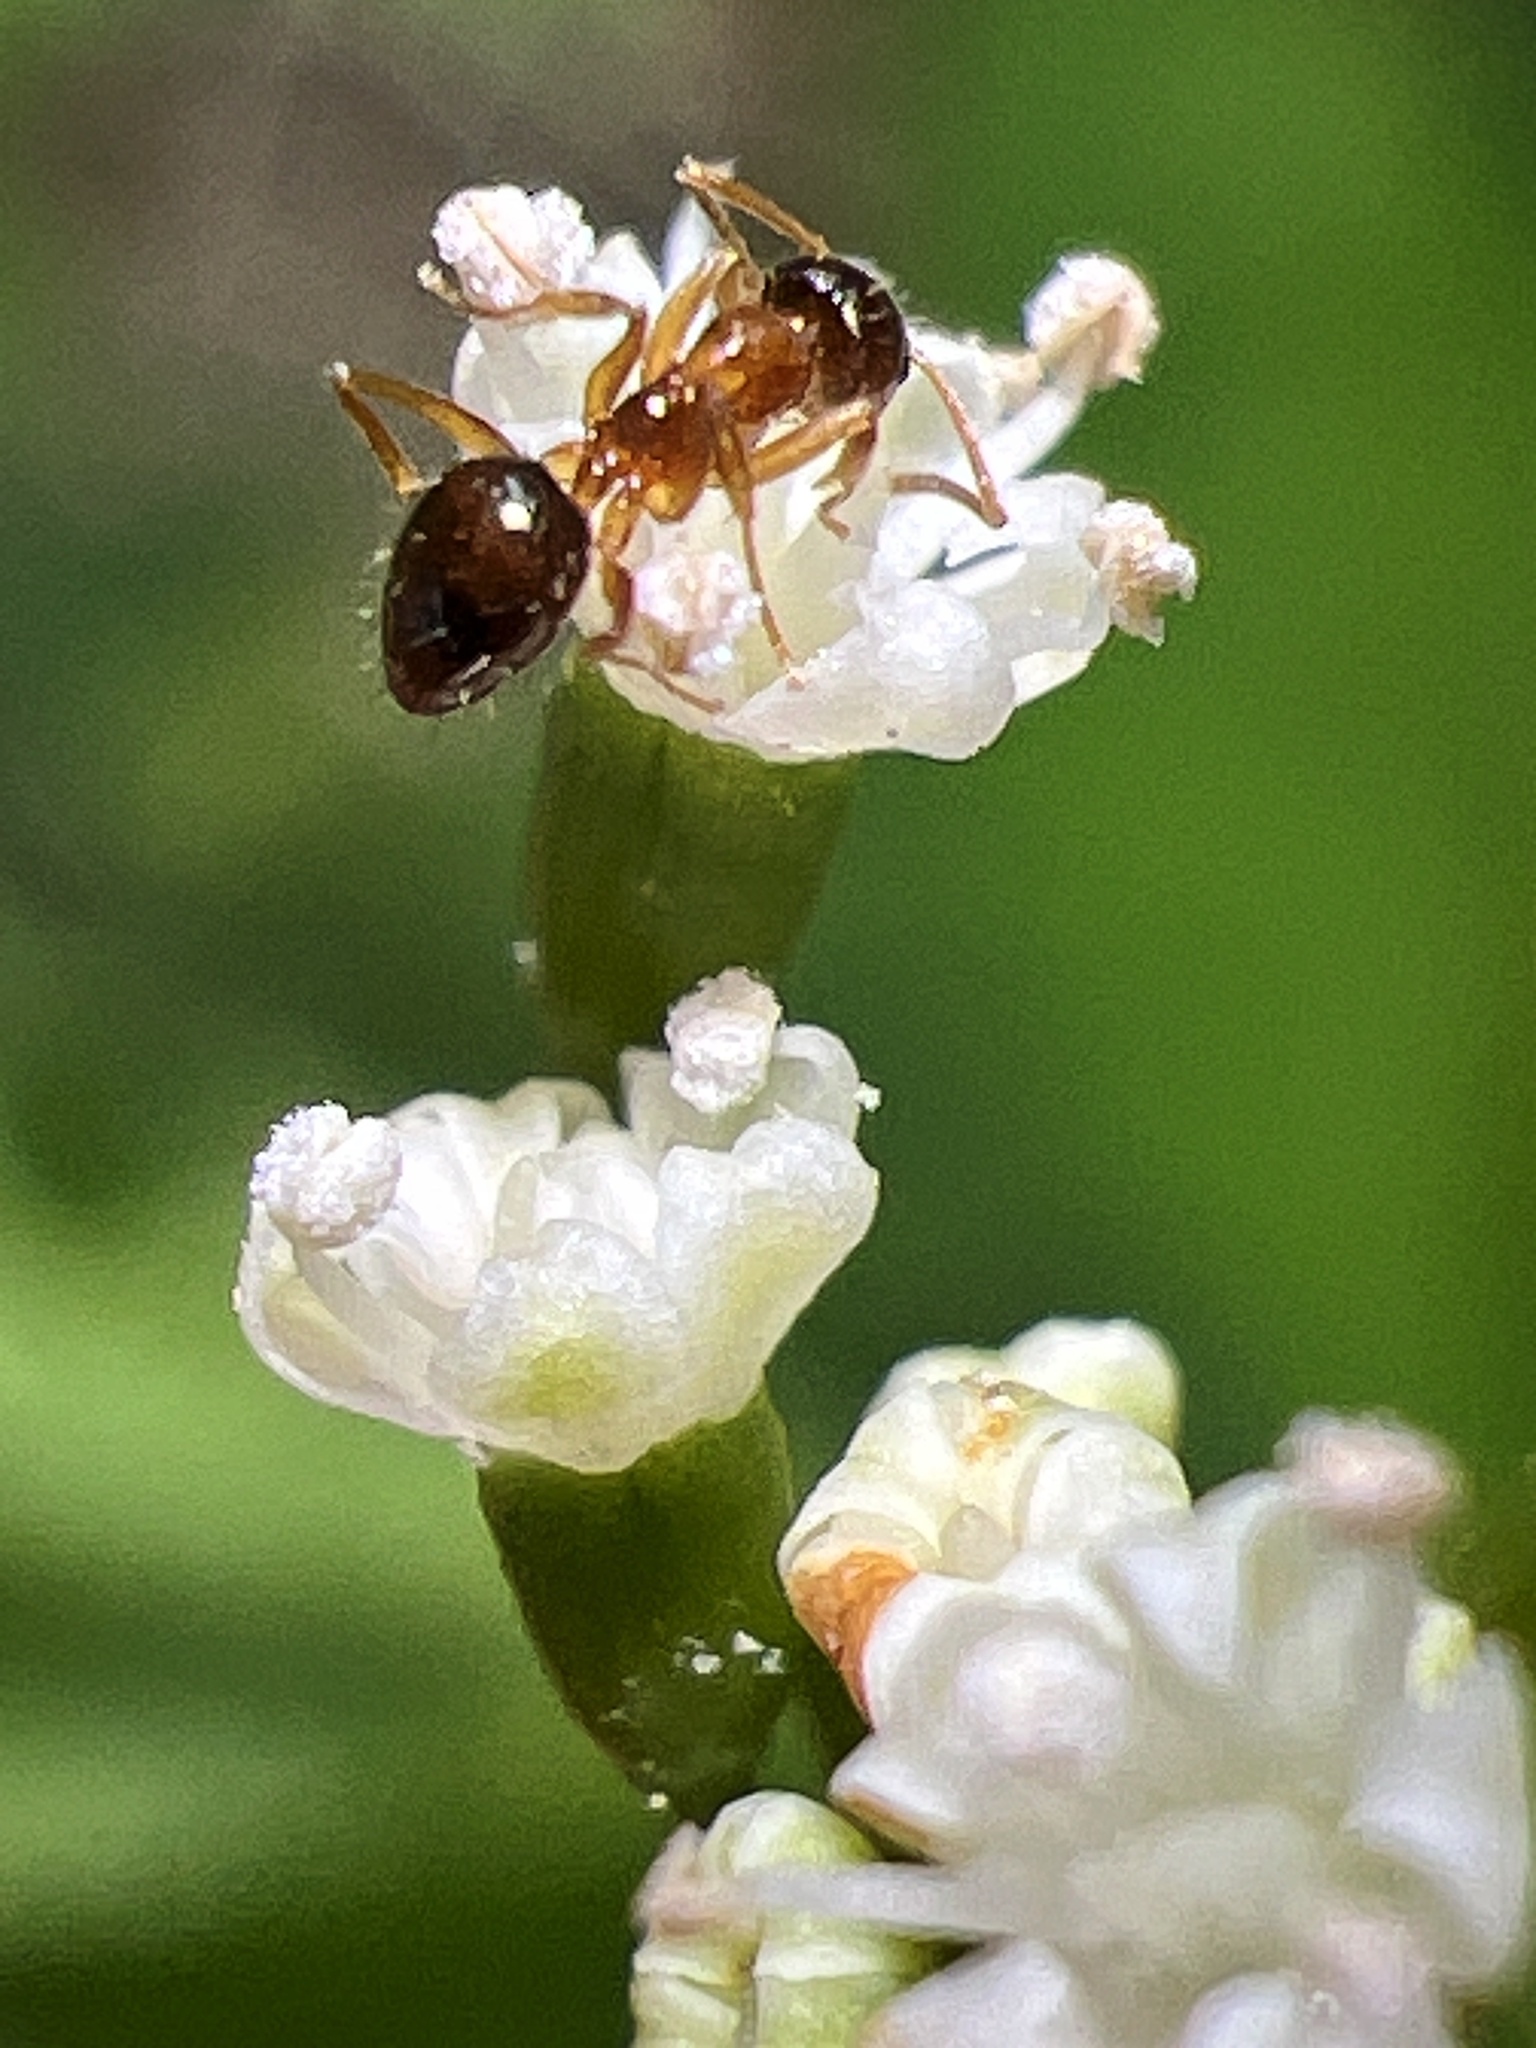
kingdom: Animalia
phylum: Arthropoda
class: Insecta
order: Hymenoptera
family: Formicidae
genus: Paratrechina
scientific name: Paratrechina flavipes
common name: Eastern asian formicine ant
